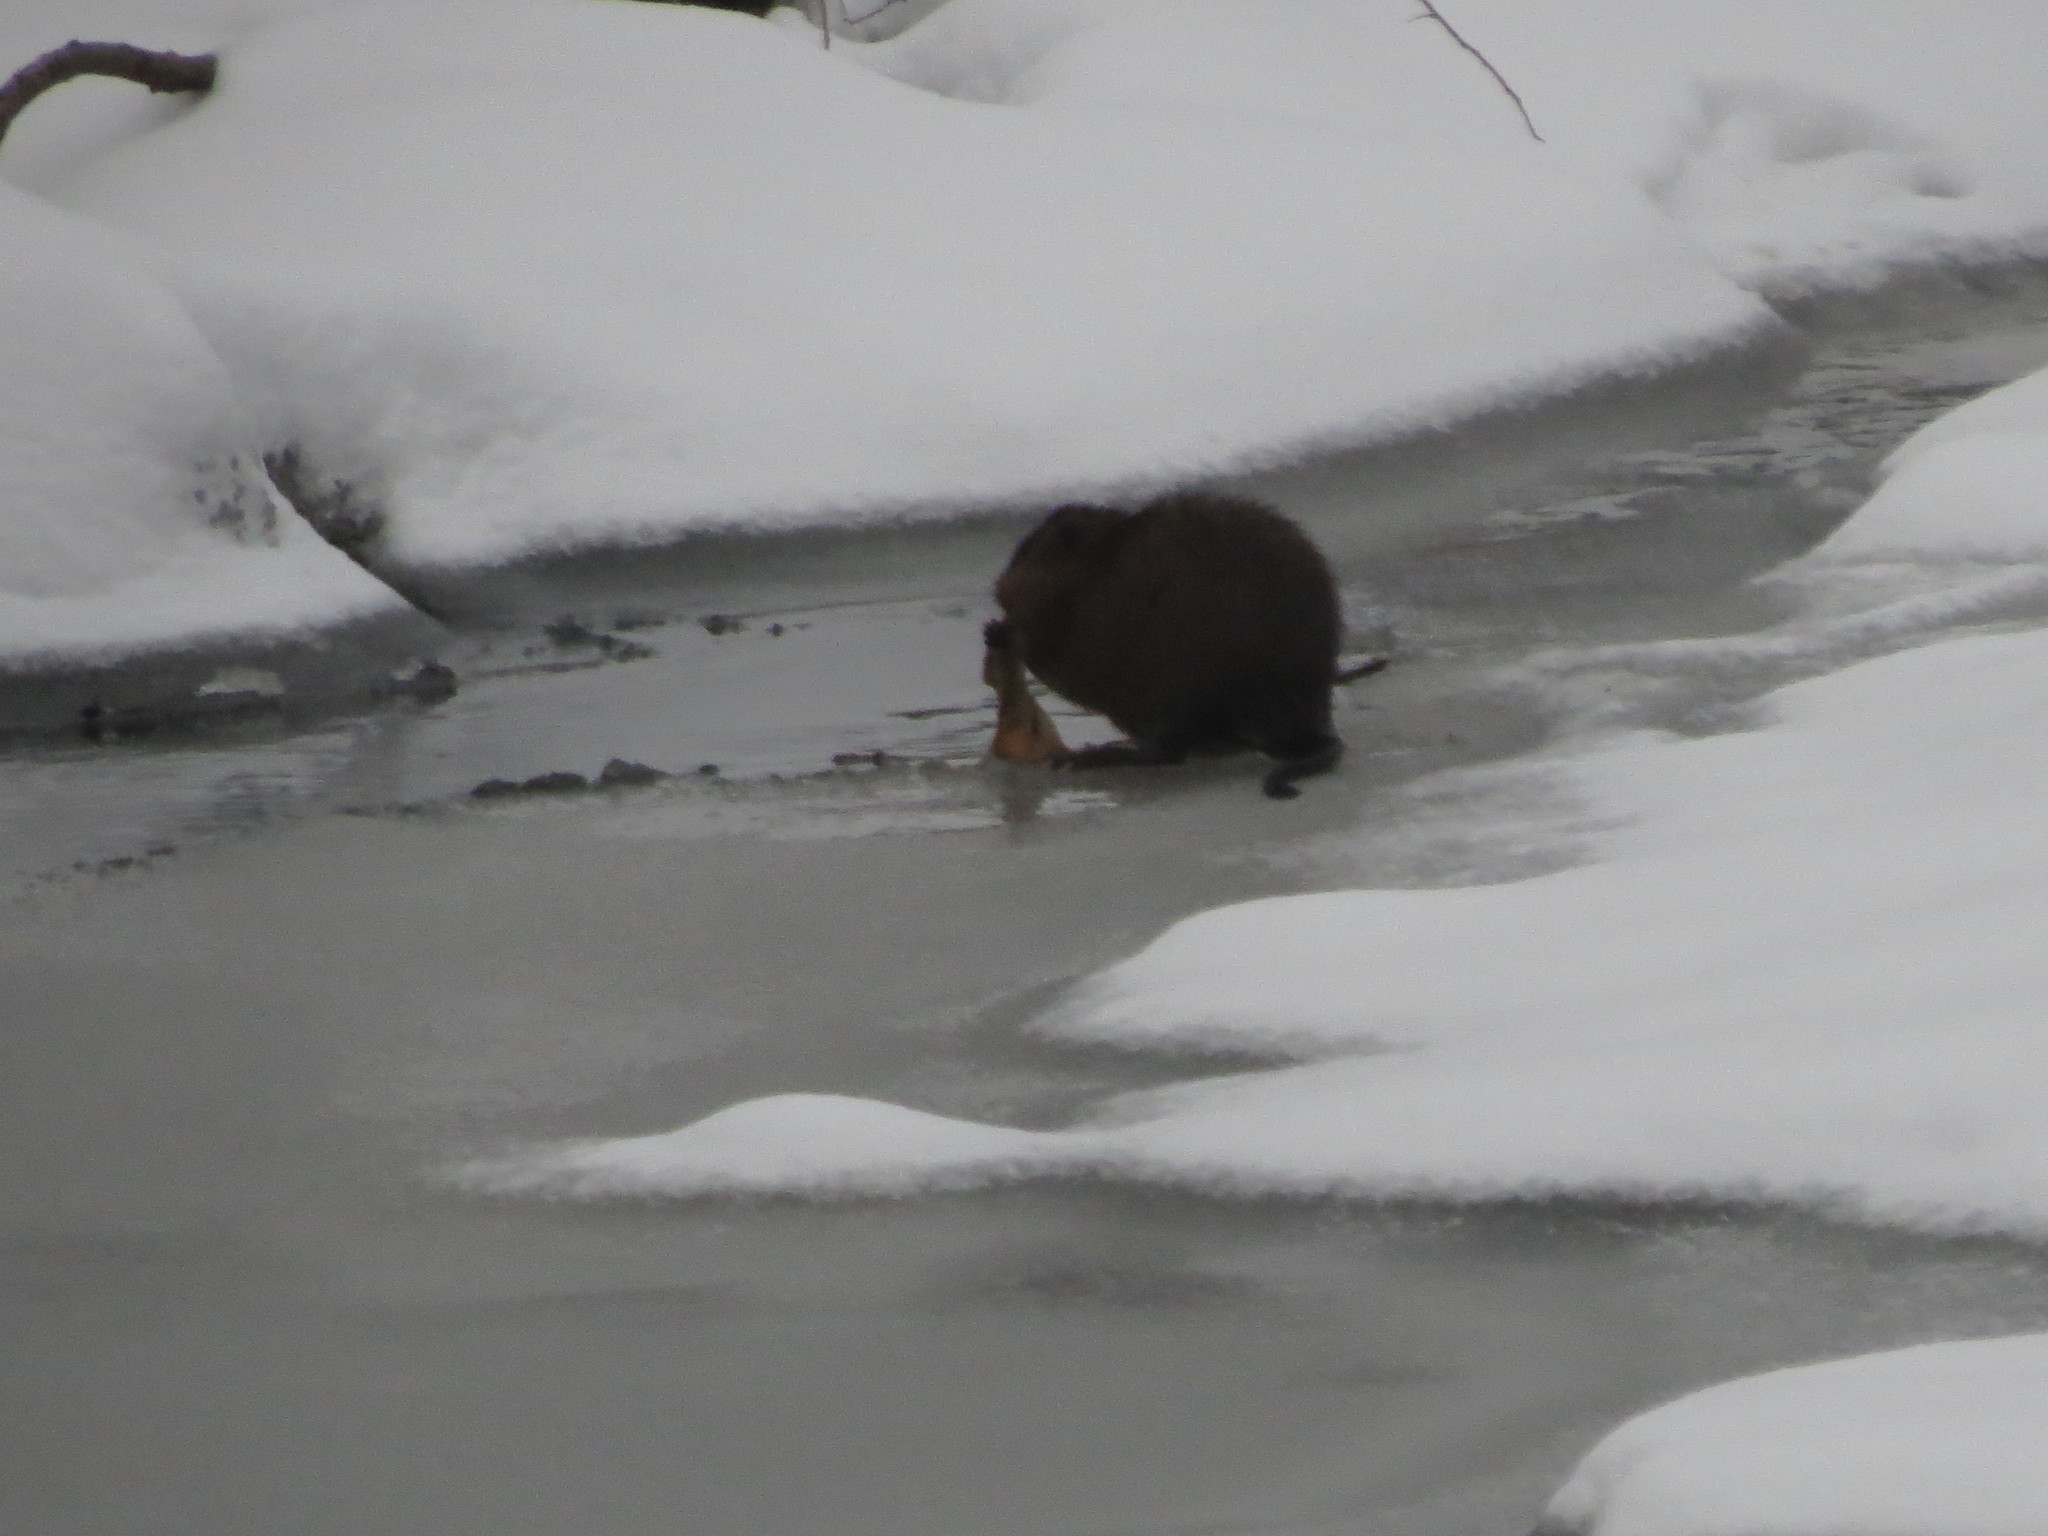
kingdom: Animalia
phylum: Chordata
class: Mammalia
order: Rodentia
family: Cricetidae
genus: Ondatra
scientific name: Ondatra zibethicus
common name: Muskrat
